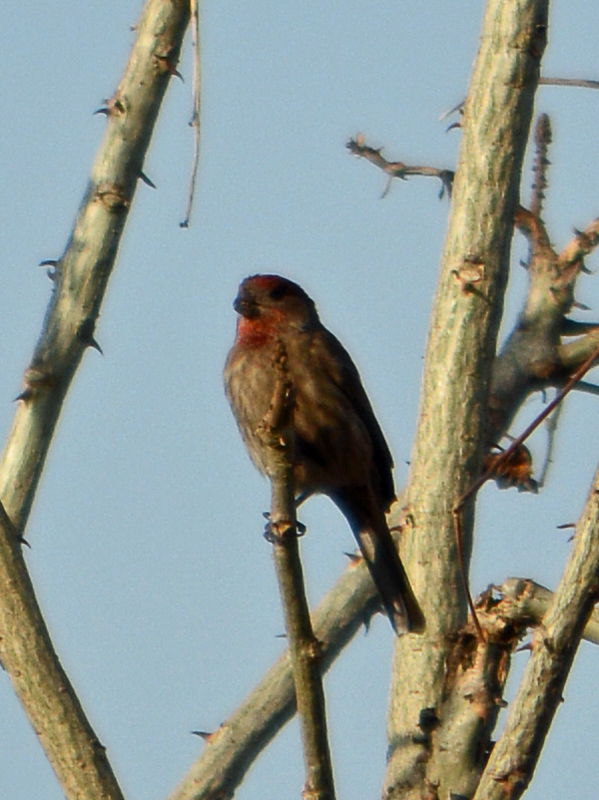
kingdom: Animalia
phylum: Chordata
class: Aves
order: Passeriformes
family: Fringillidae
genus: Haemorhous
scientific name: Haemorhous mexicanus
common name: House finch
